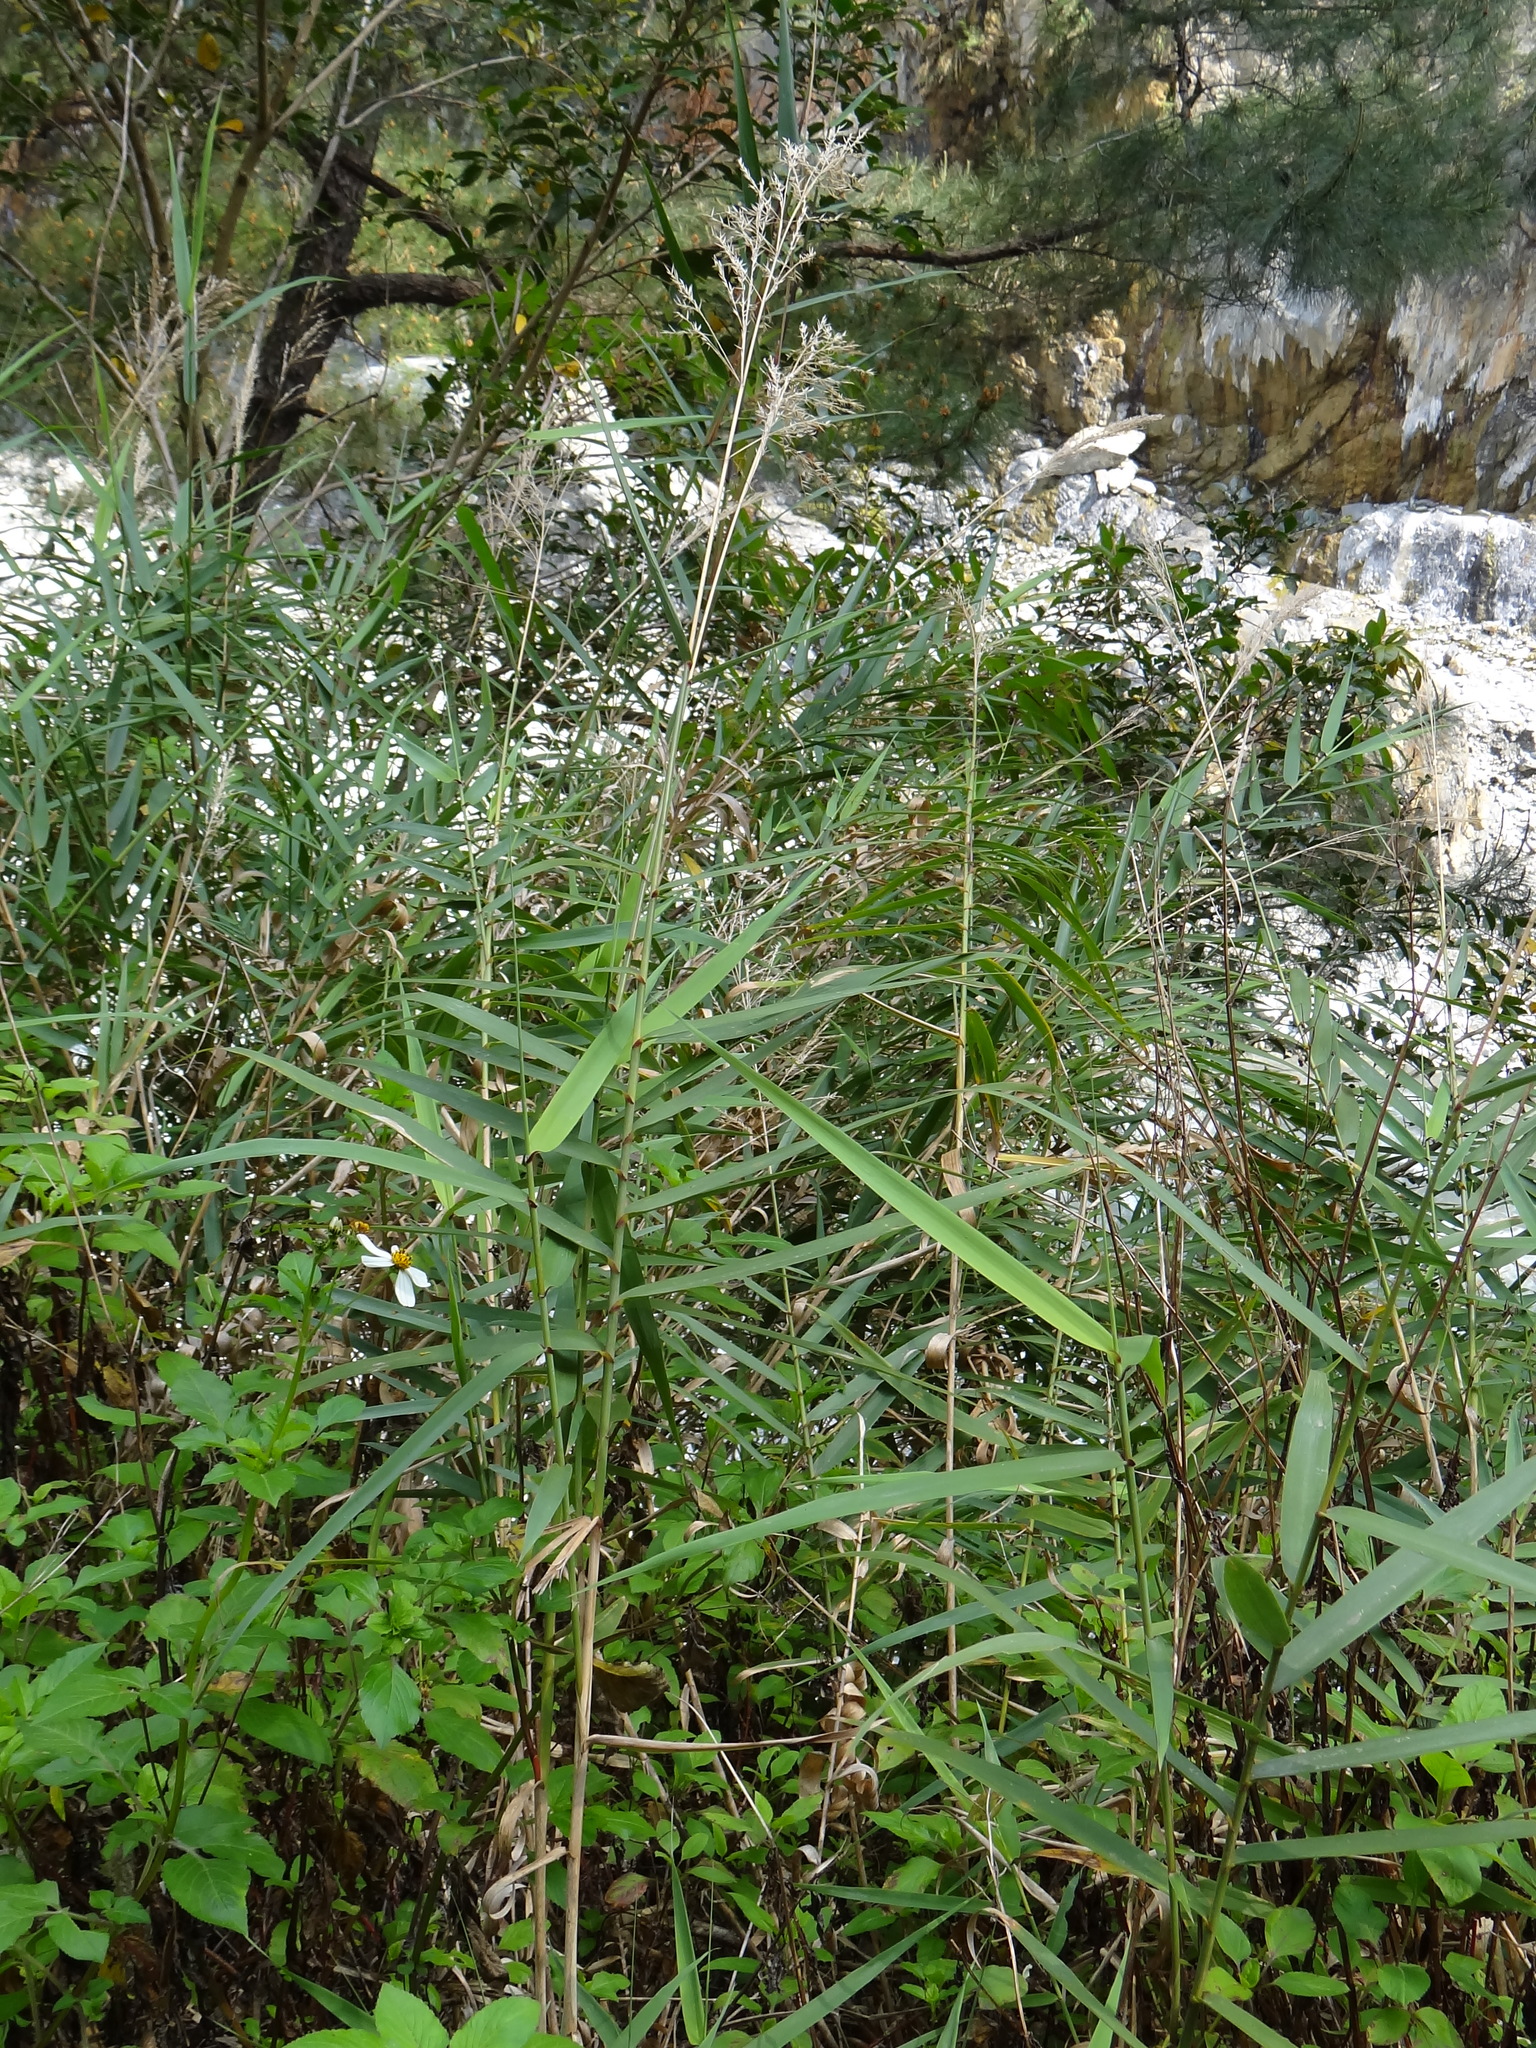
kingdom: Plantae
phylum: Tracheophyta
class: Liliopsida
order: Poales
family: Poaceae
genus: Arundo
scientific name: Arundo formosana
